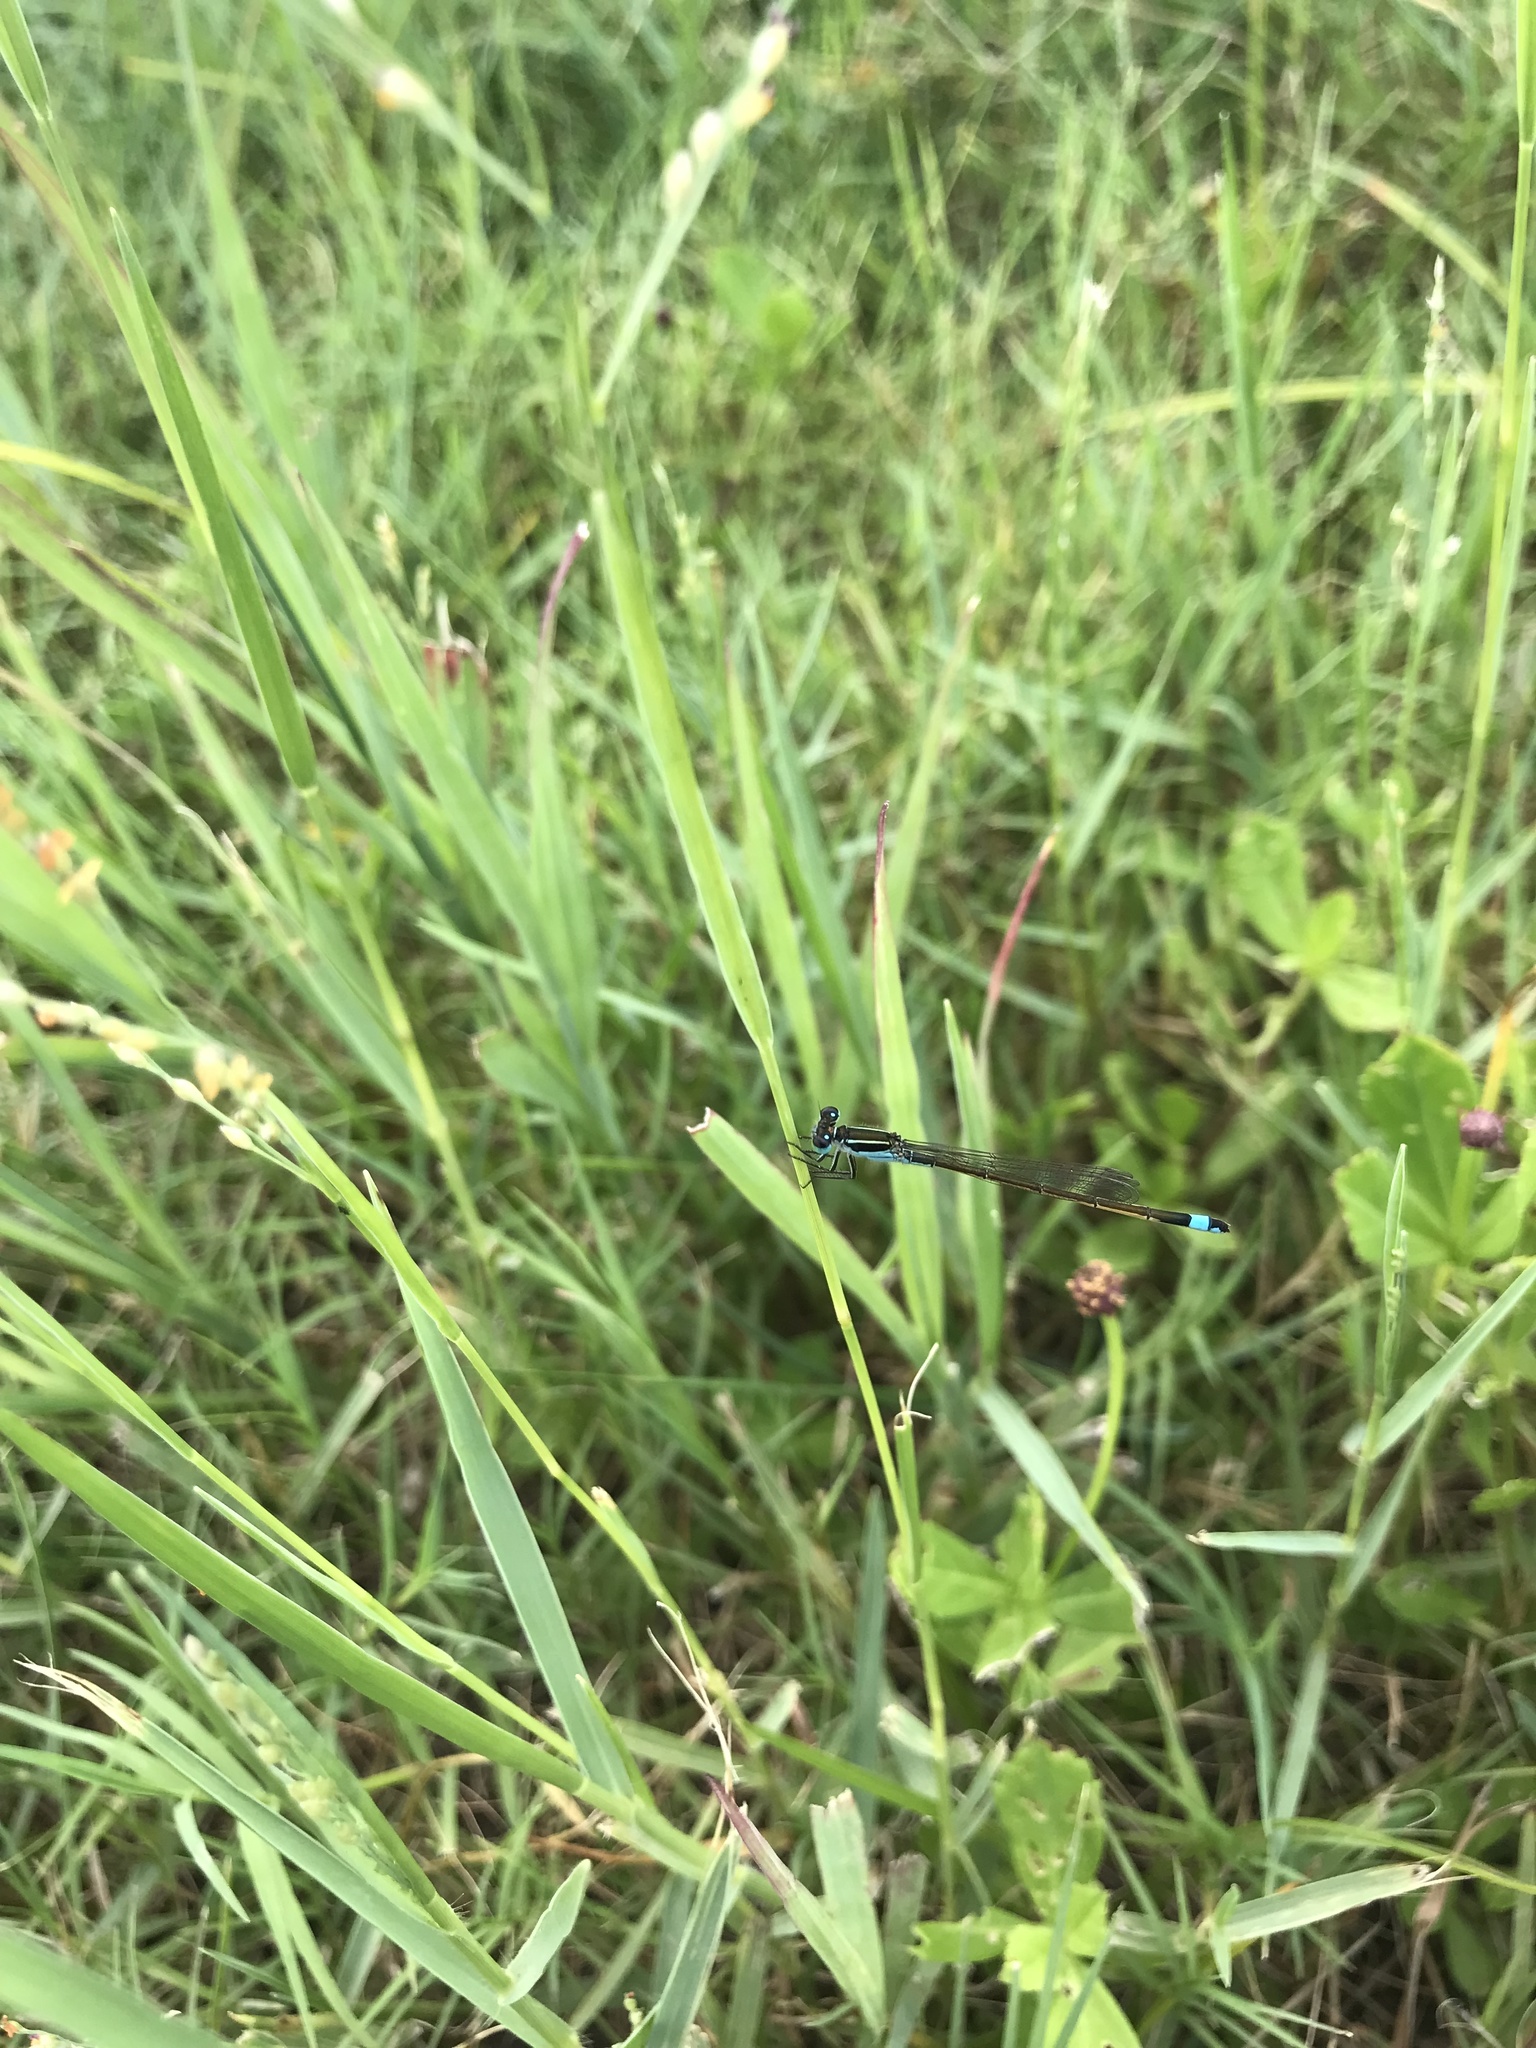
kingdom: Animalia
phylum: Arthropoda
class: Insecta
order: Odonata
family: Coenagrionidae
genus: Ischnura
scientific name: Ischnura ramburii
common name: Rambur's forktail
